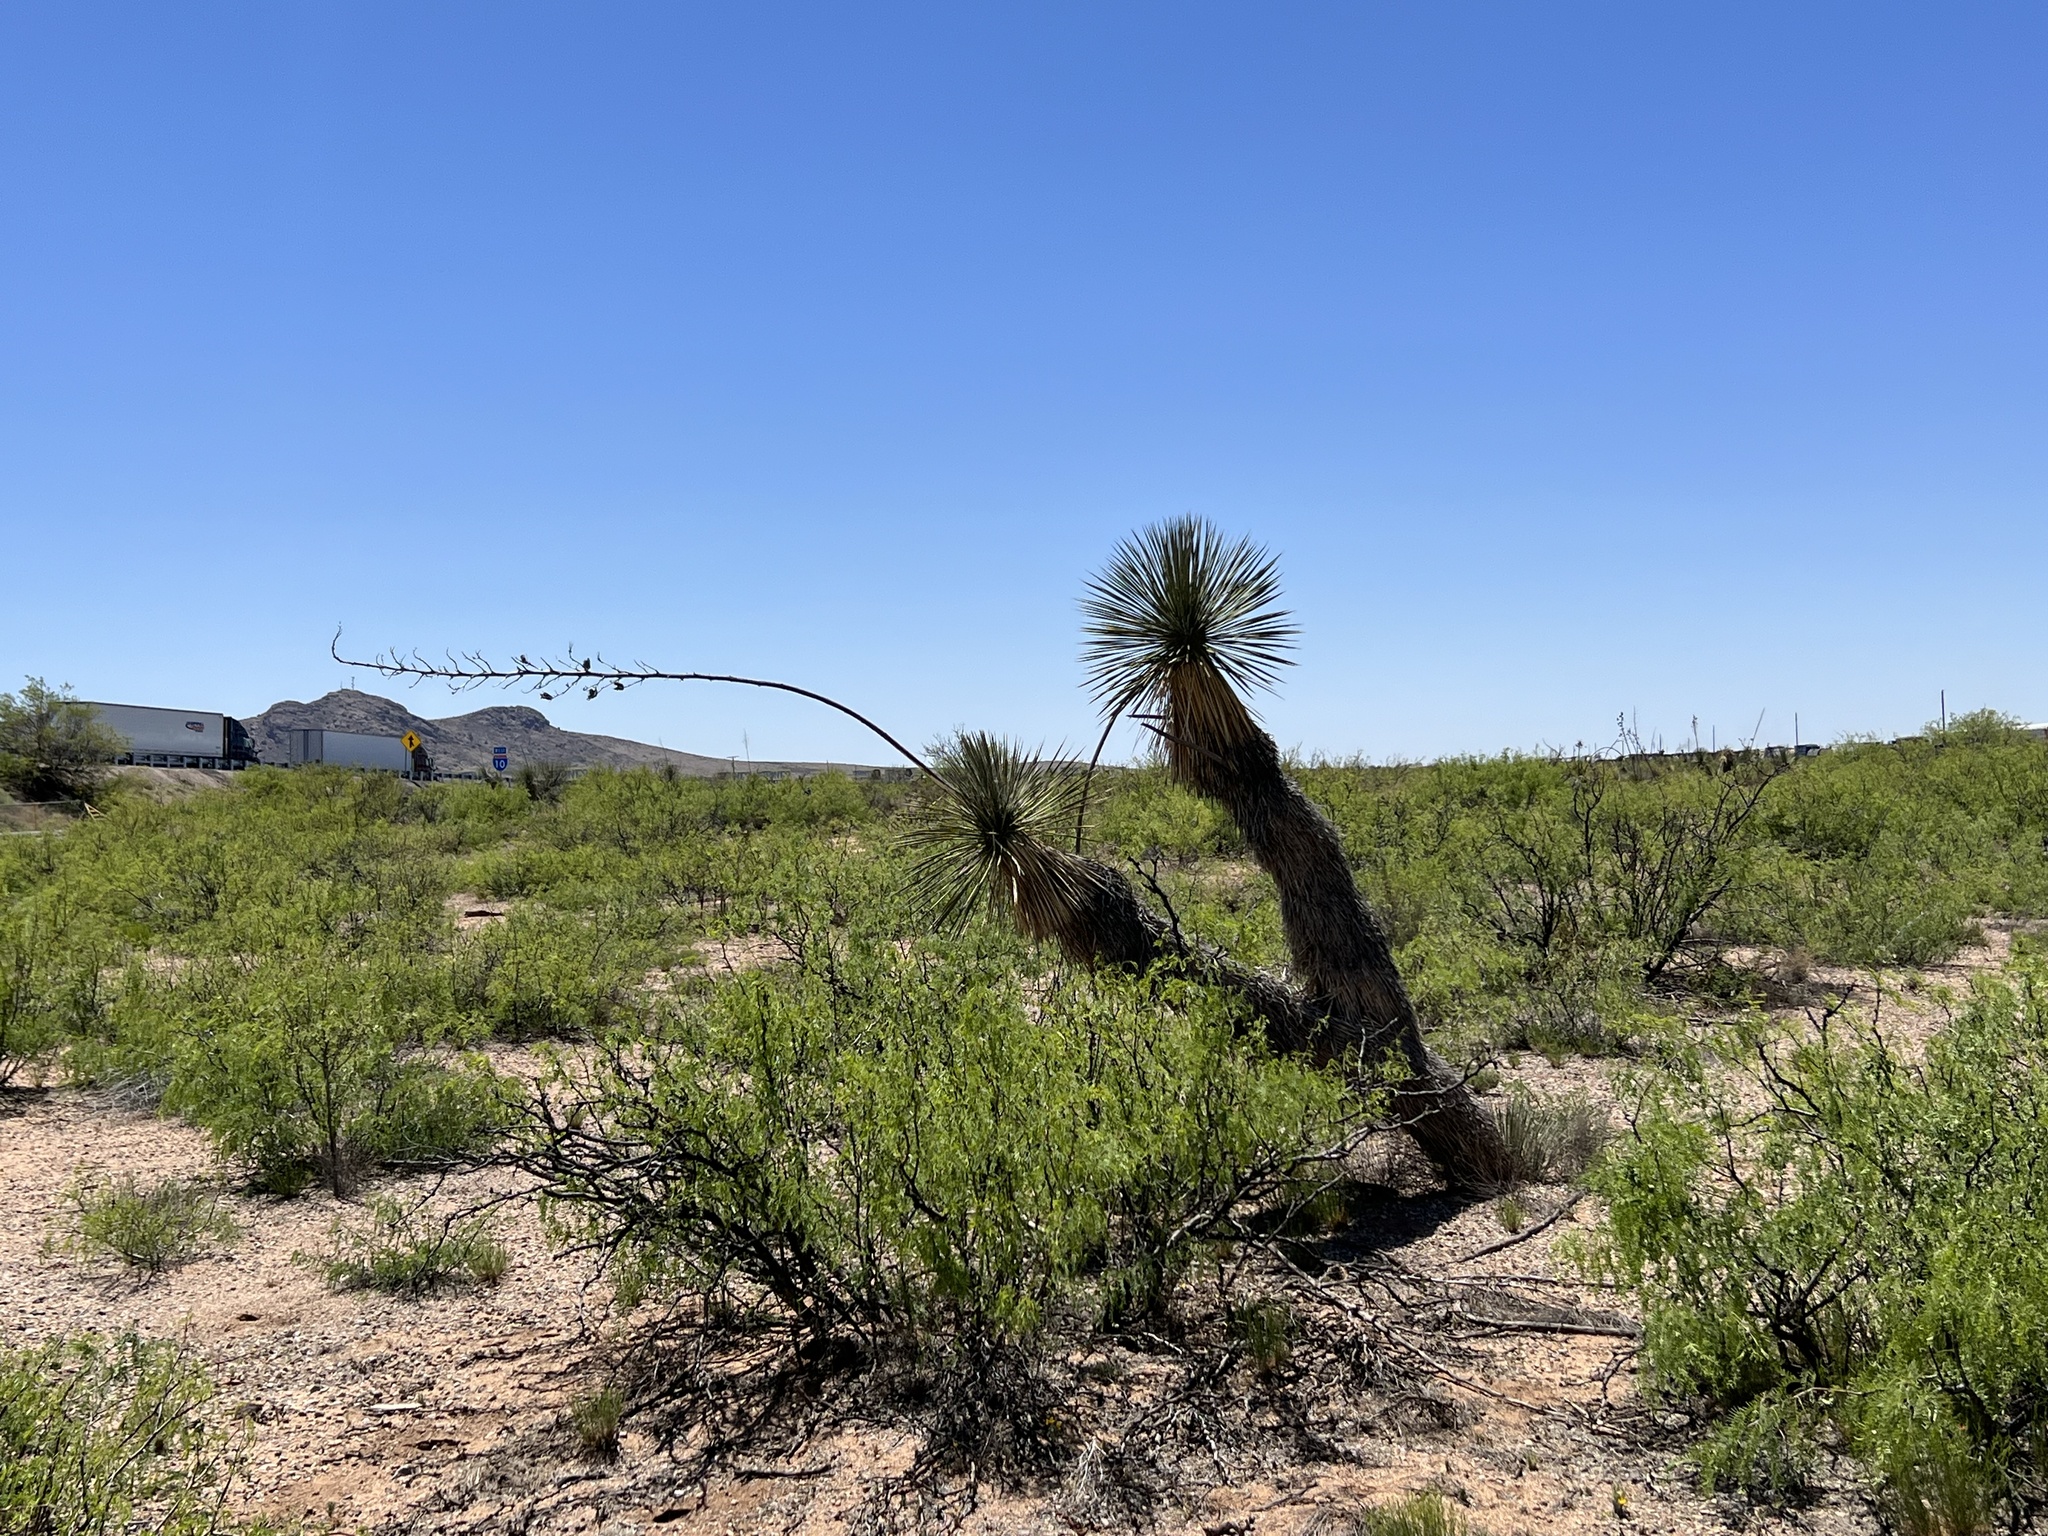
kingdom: Plantae
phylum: Tracheophyta
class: Liliopsida
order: Asparagales
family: Asparagaceae
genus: Yucca
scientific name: Yucca elata
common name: Palmella
